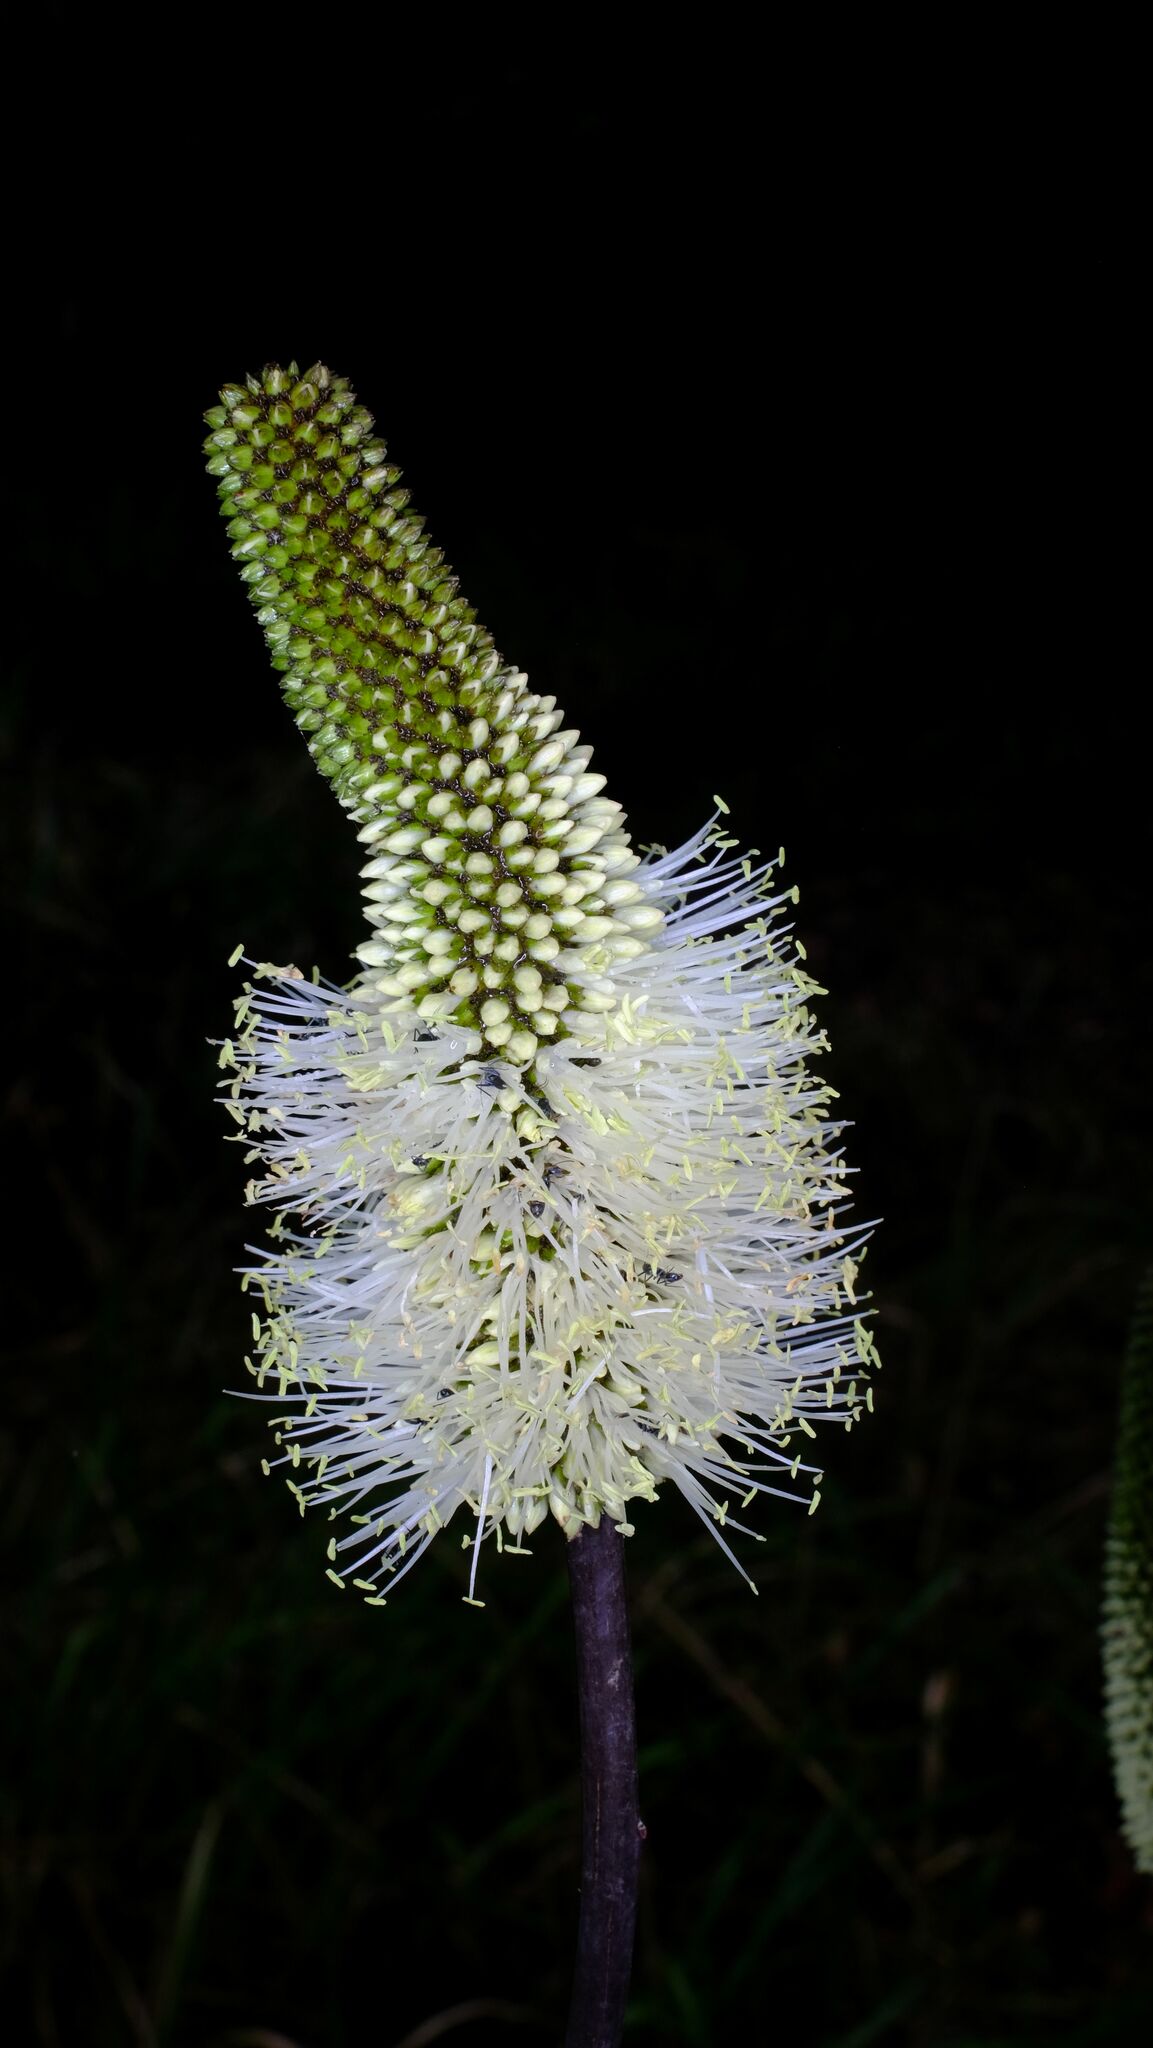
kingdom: Plantae
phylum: Tracheophyta
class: Liliopsida
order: Asparagales
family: Asphodelaceae
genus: Xanthorrhoea
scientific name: Xanthorrhoea macronema
